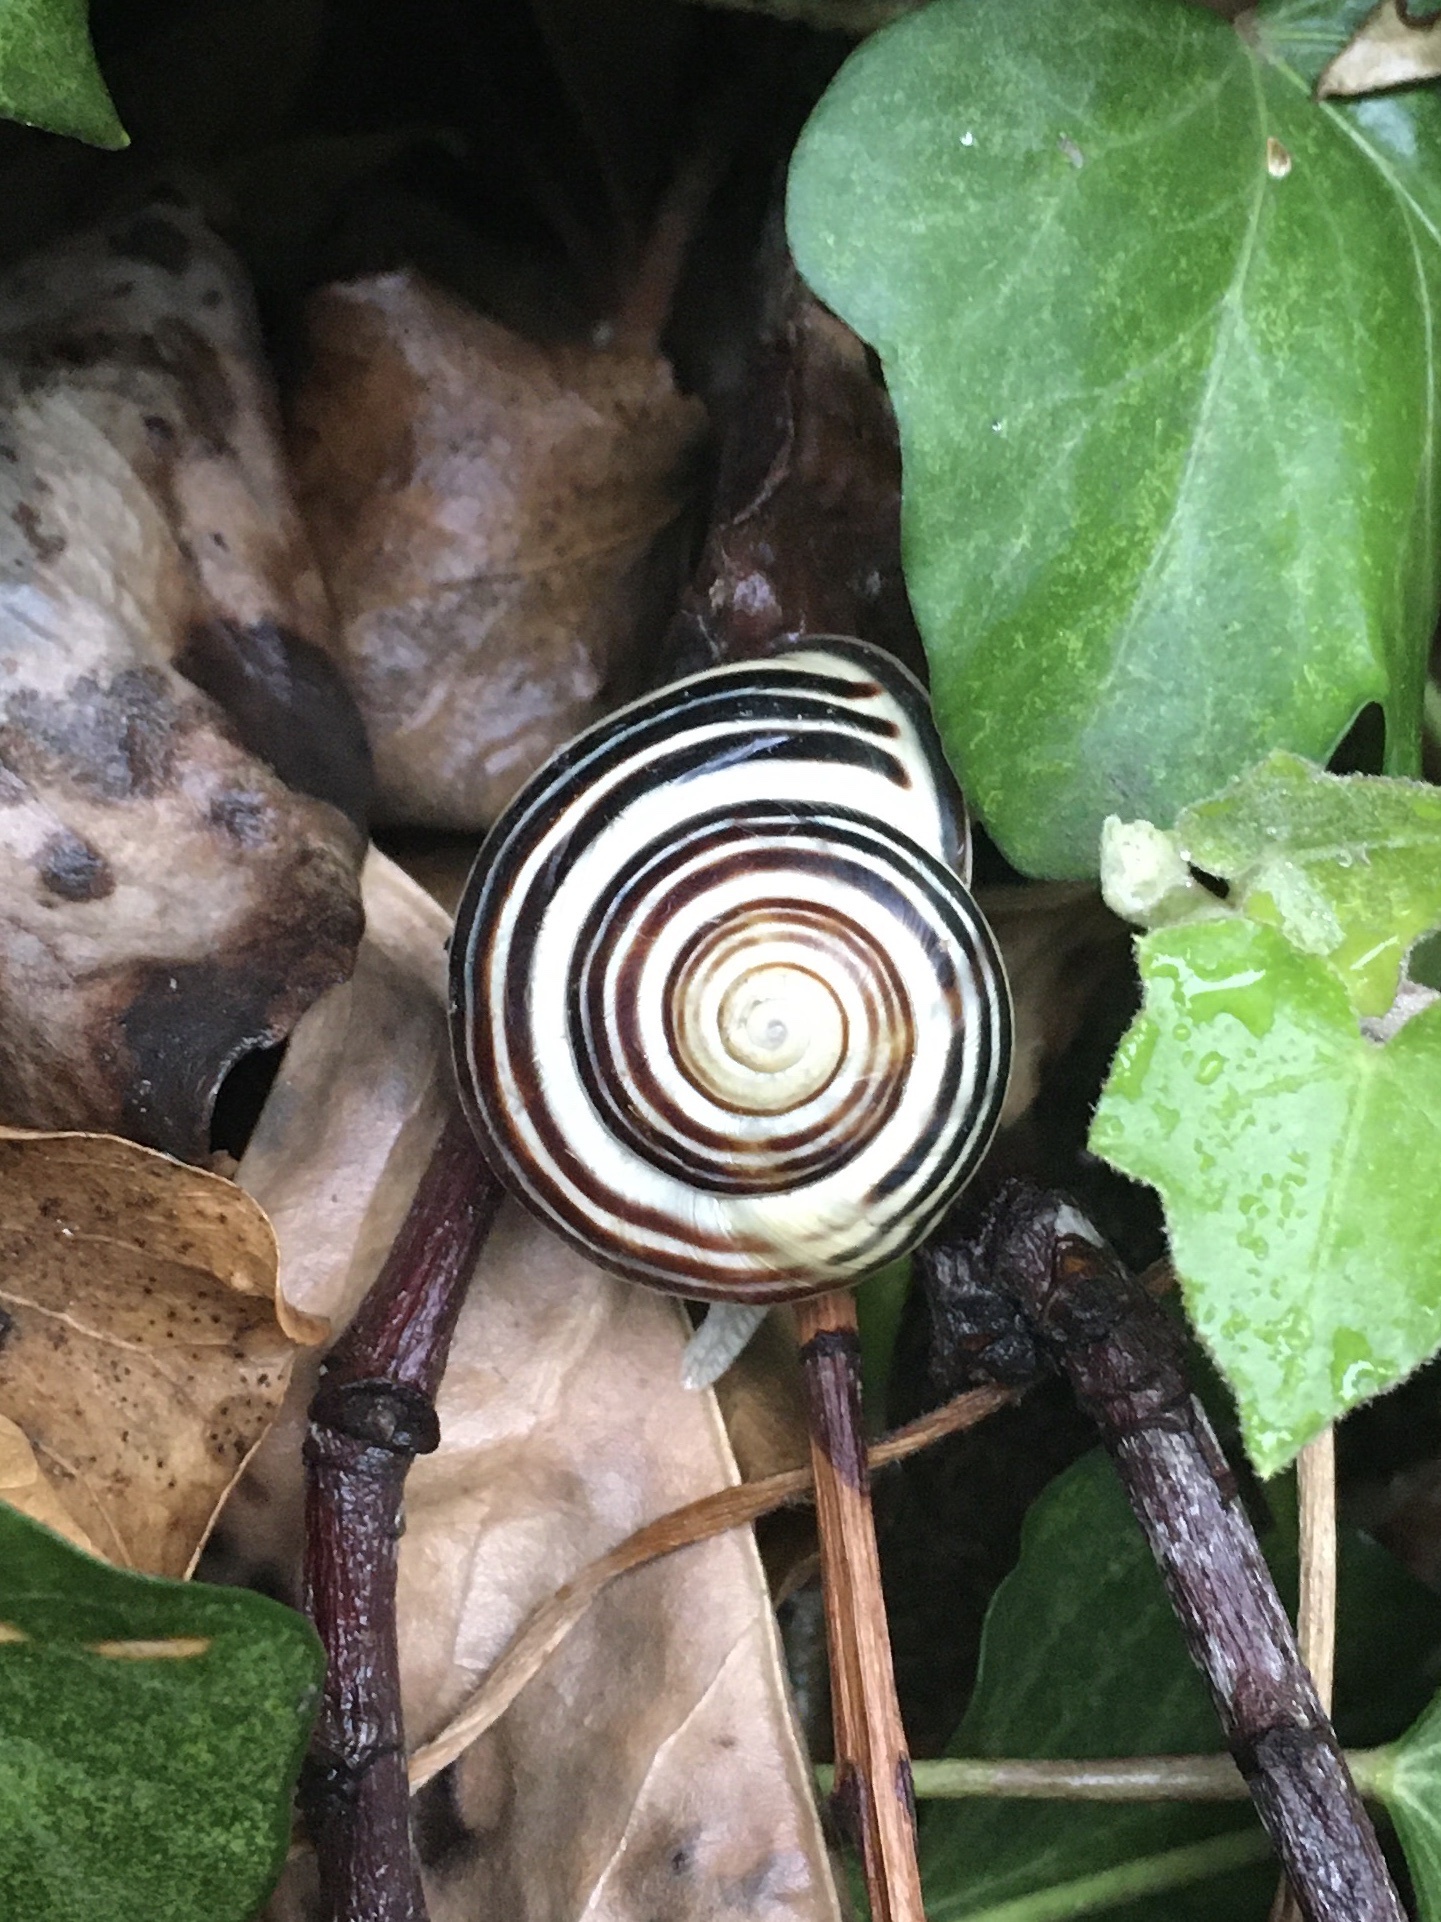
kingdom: Animalia
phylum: Mollusca
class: Gastropoda
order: Stylommatophora
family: Helicidae
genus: Cepaea
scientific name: Cepaea nemoralis
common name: Grovesnail
